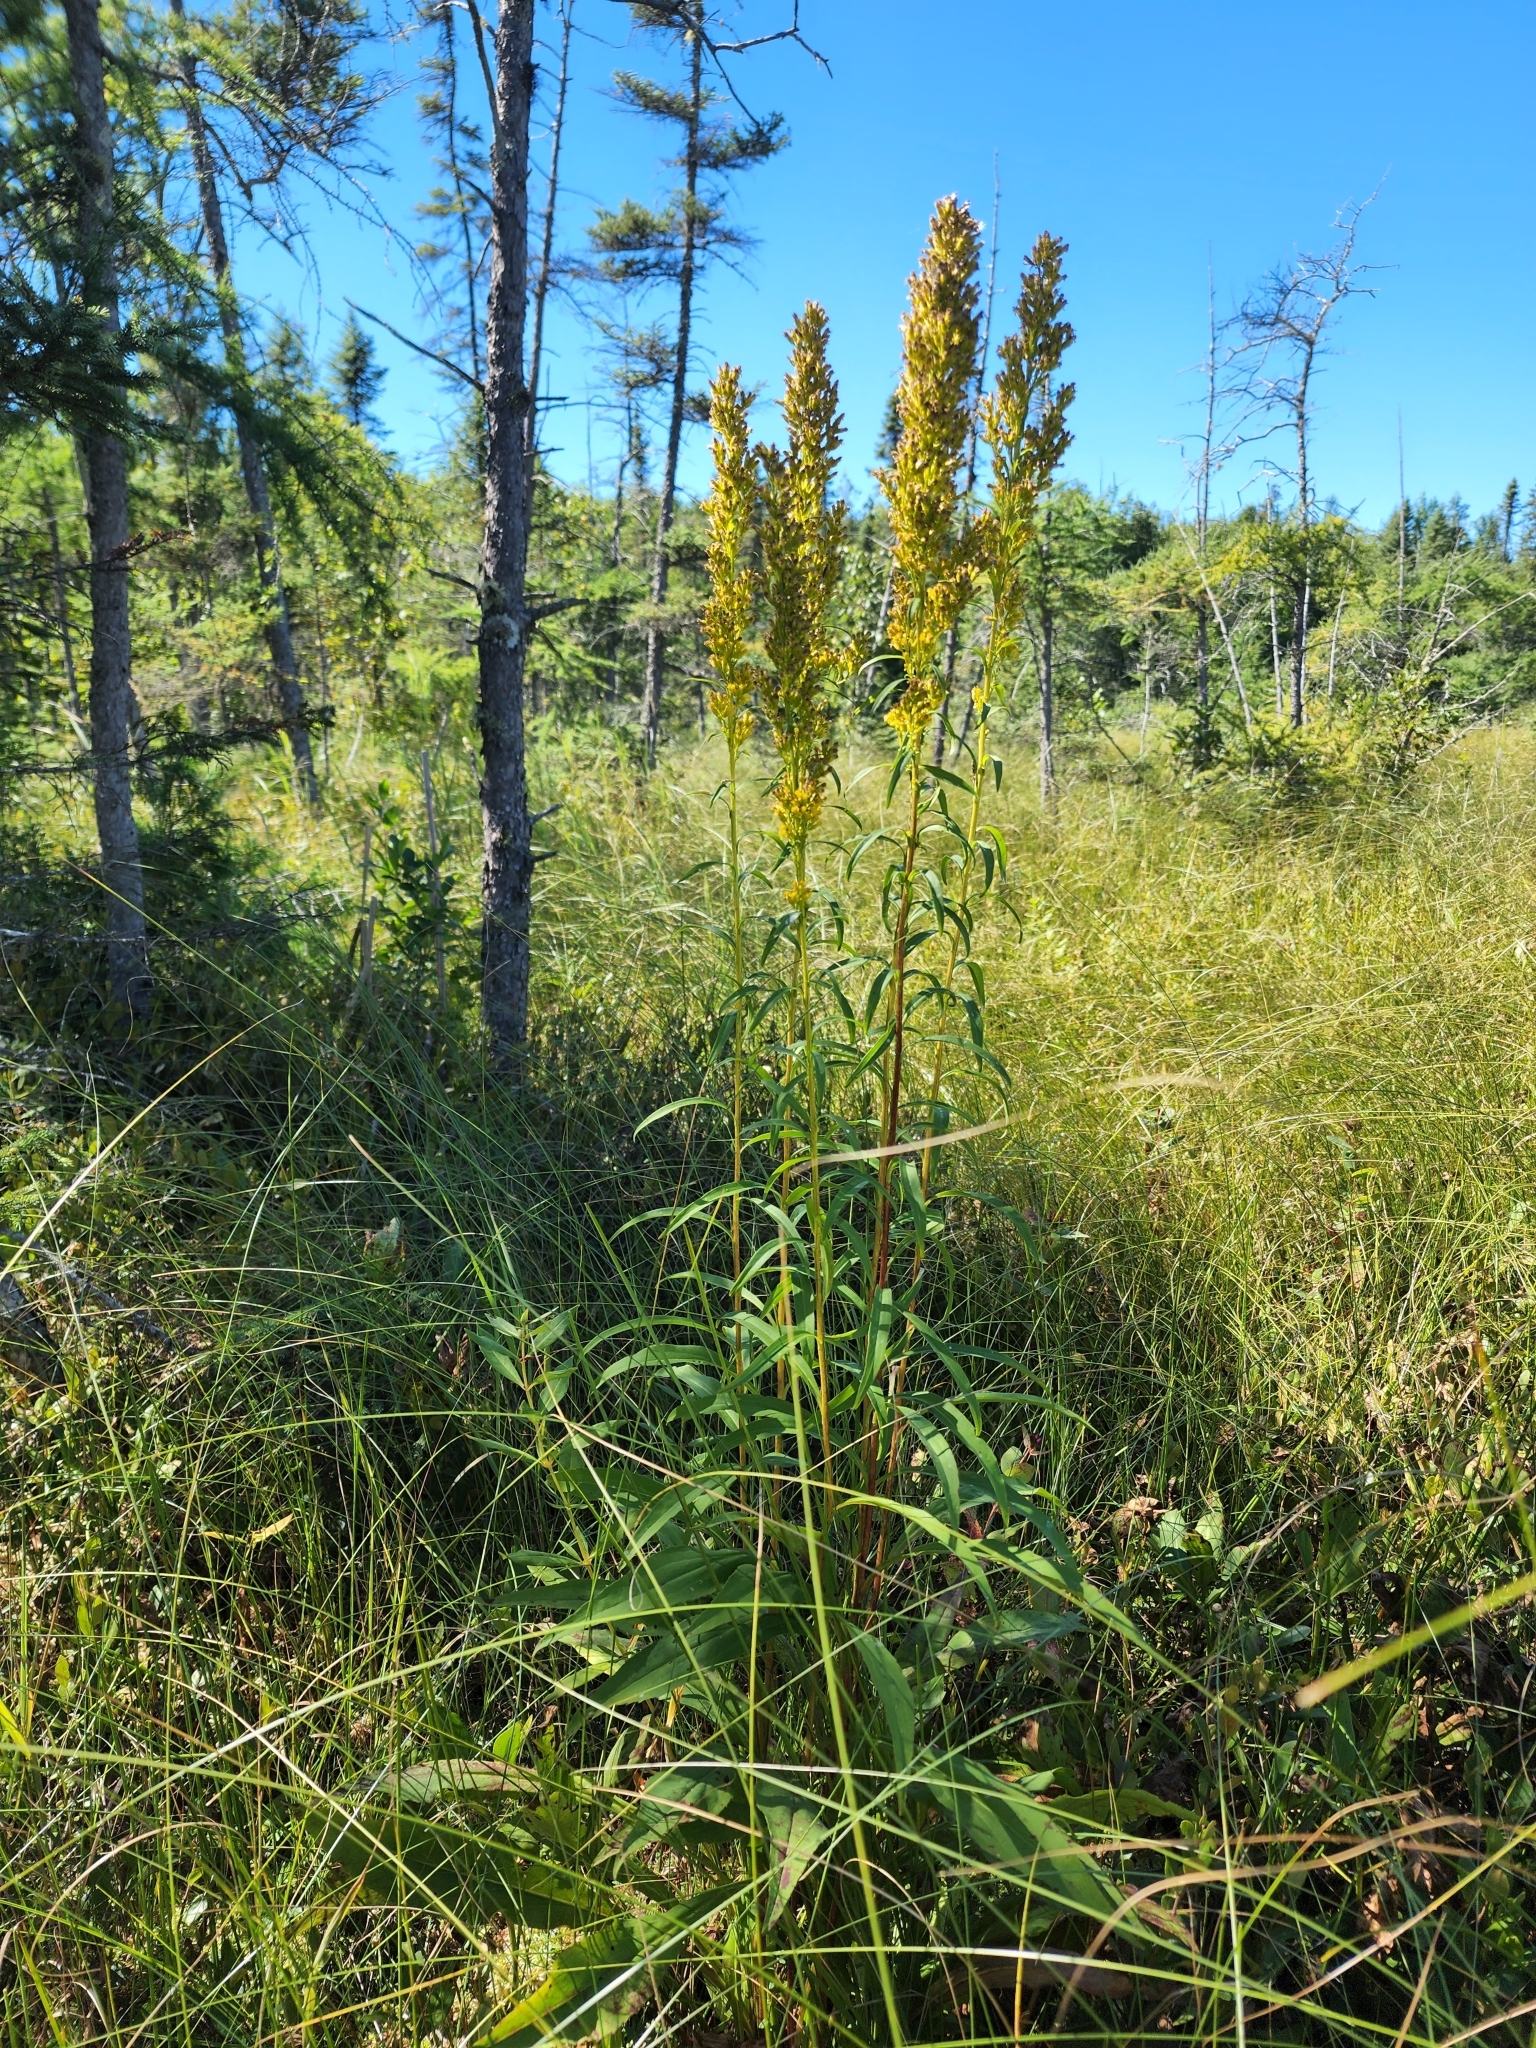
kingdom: Plantae
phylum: Tracheophyta
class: Magnoliopsida
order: Asterales
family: Asteraceae
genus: Solidago
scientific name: Solidago uliginosa
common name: Bog goldenrod
